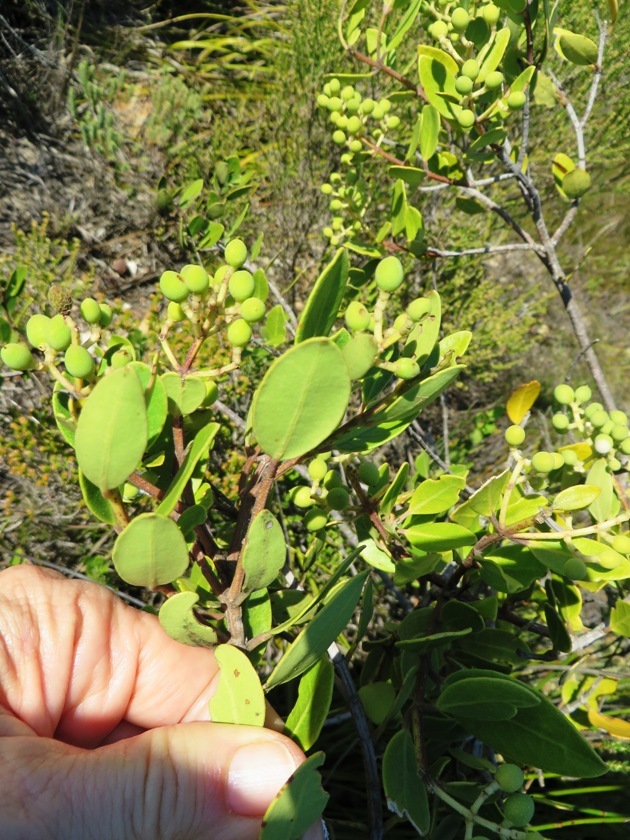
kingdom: Plantae
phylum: Tracheophyta
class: Magnoliopsida
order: Lamiales
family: Oleaceae
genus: Olea
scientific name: Olea capensis
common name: Black ironwood
